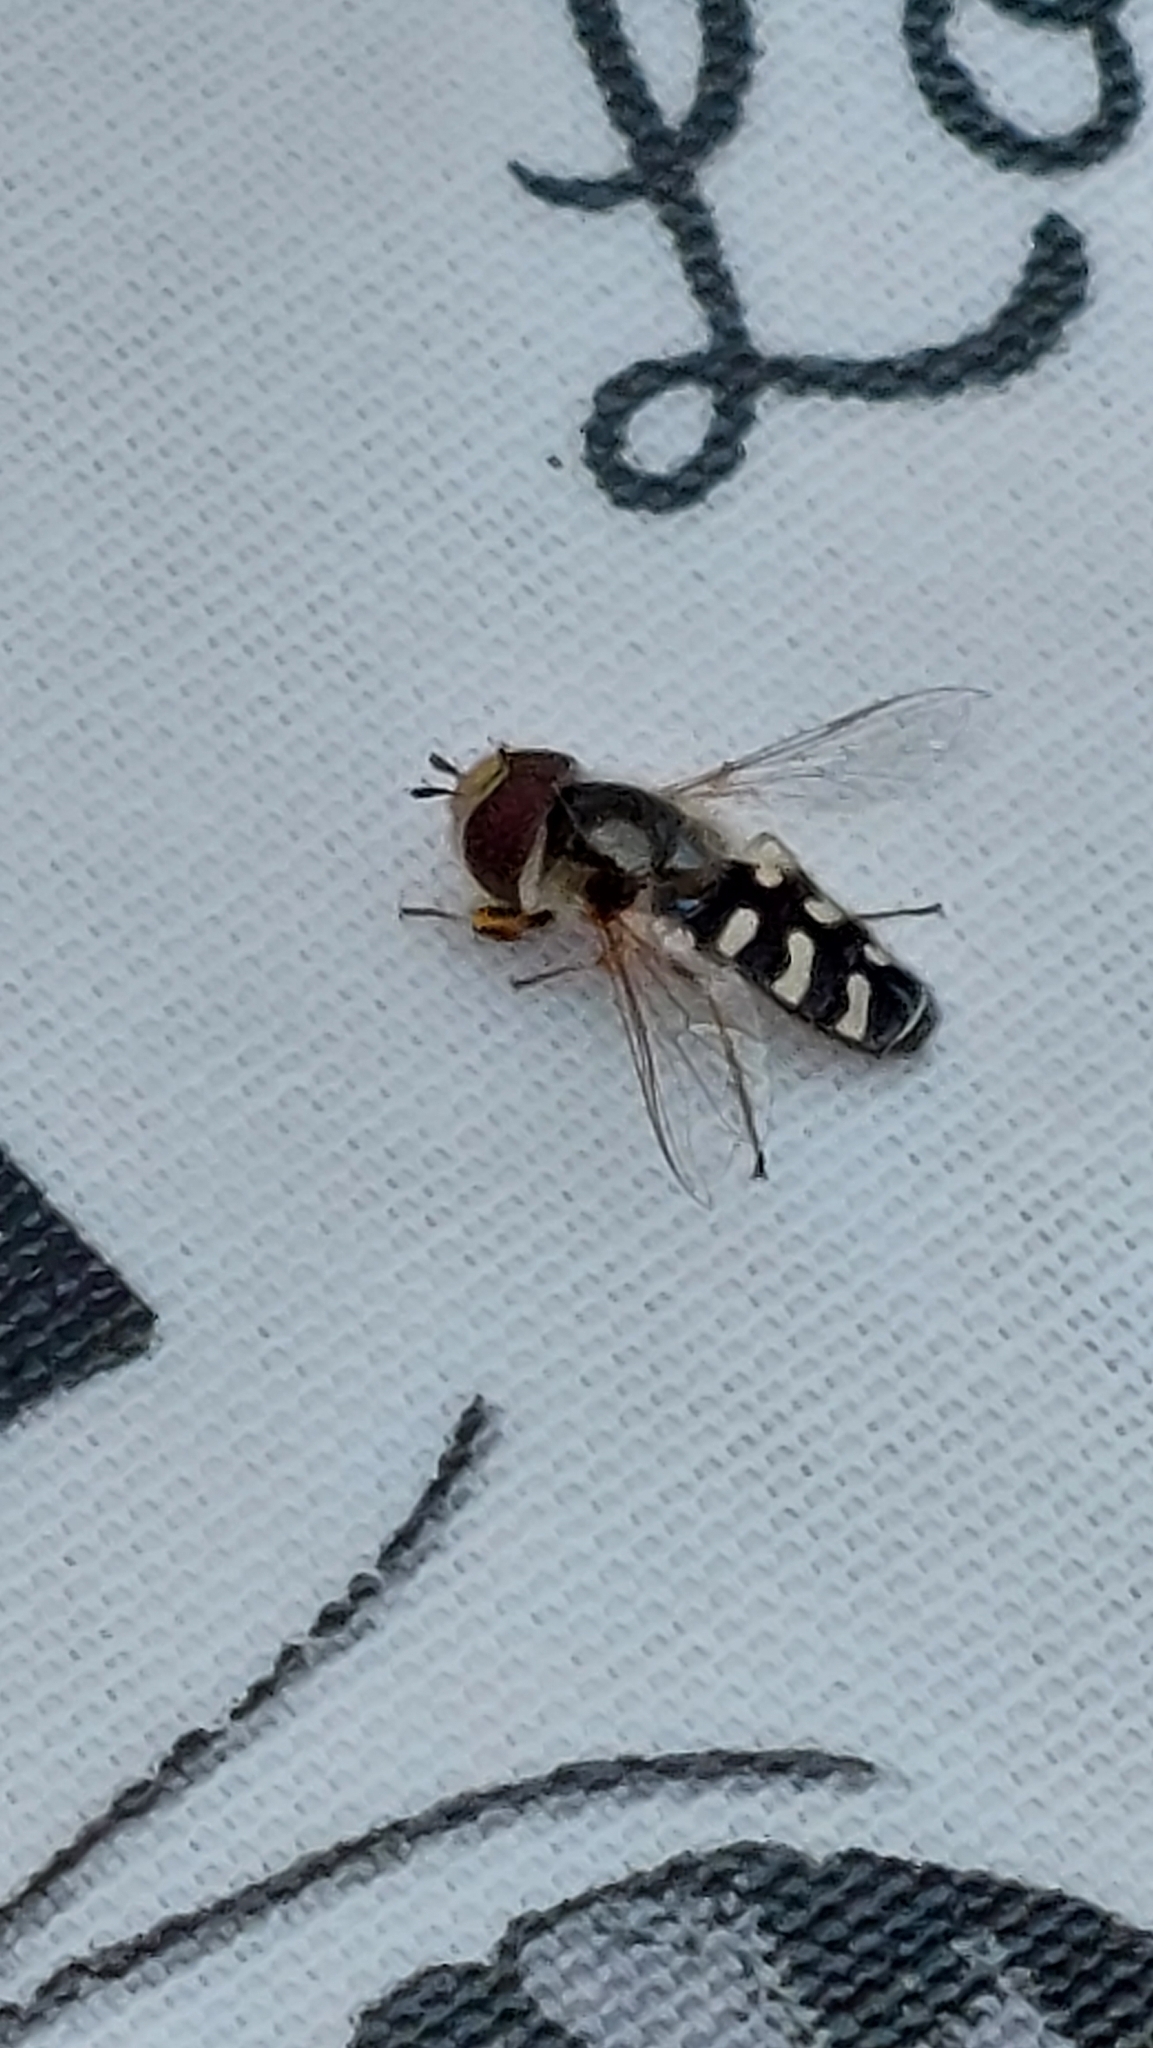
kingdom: Animalia
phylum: Arthropoda
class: Insecta
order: Diptera
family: Syrphidae
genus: Scaeva
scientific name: Scaeva pyrastri
